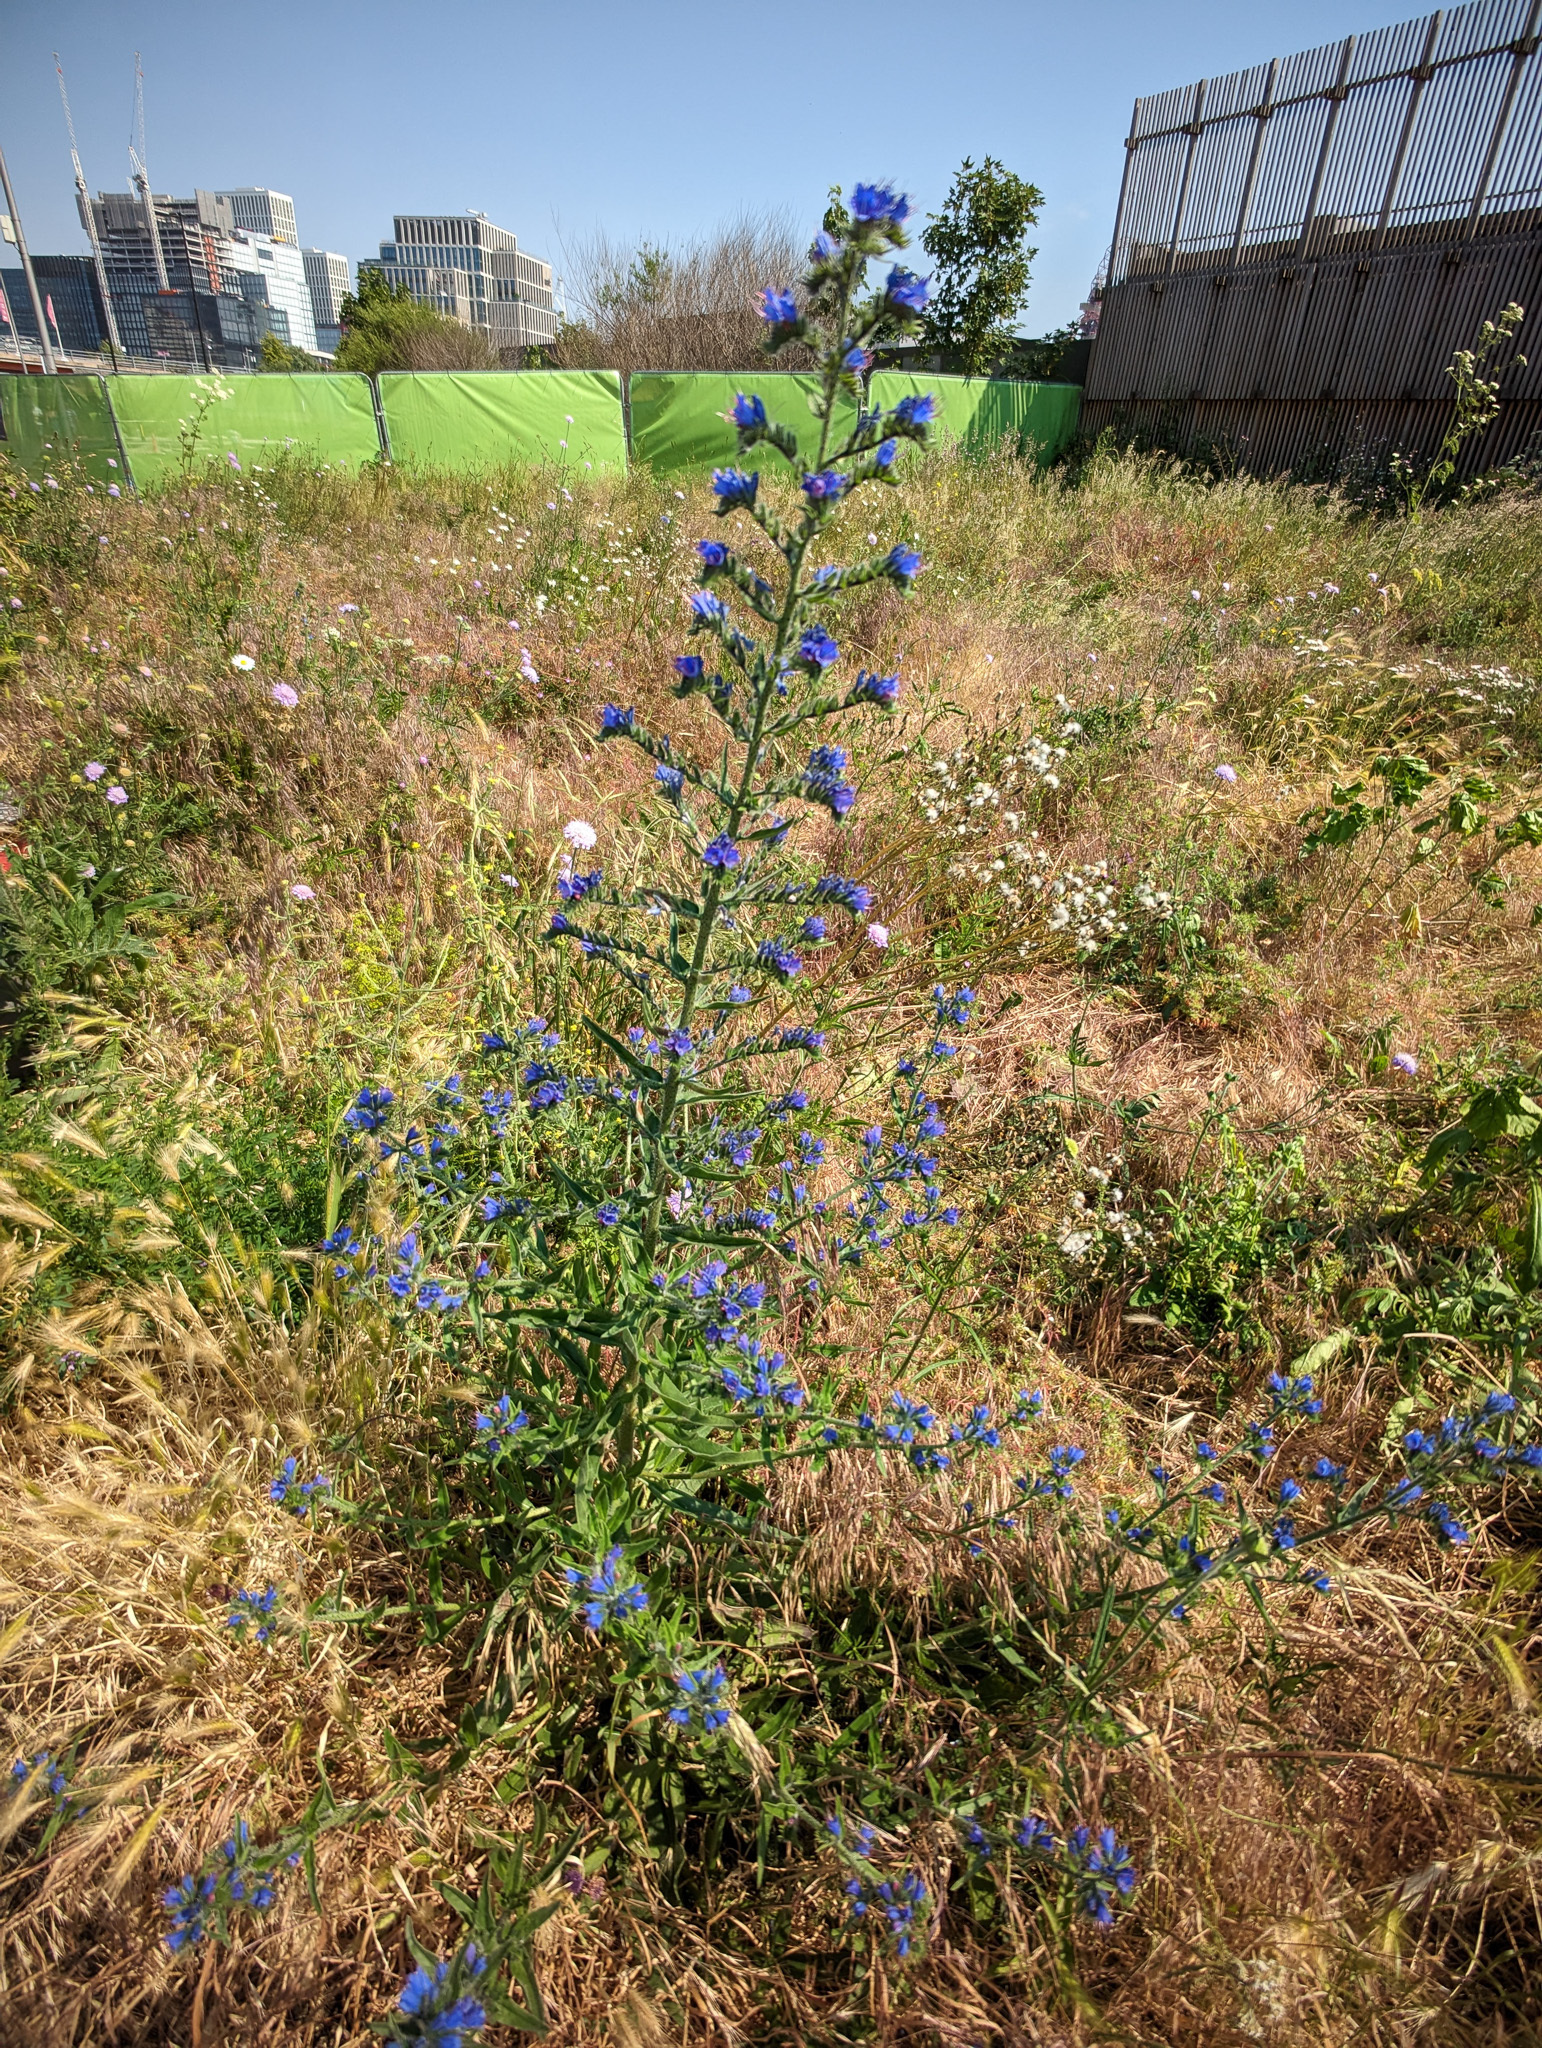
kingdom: Plantae
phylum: Tracheophyta
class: Magnoliopsida
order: Boraginales
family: Boraginaceae
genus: Echium
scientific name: Echium vulgare
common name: Common viper's bugloss
